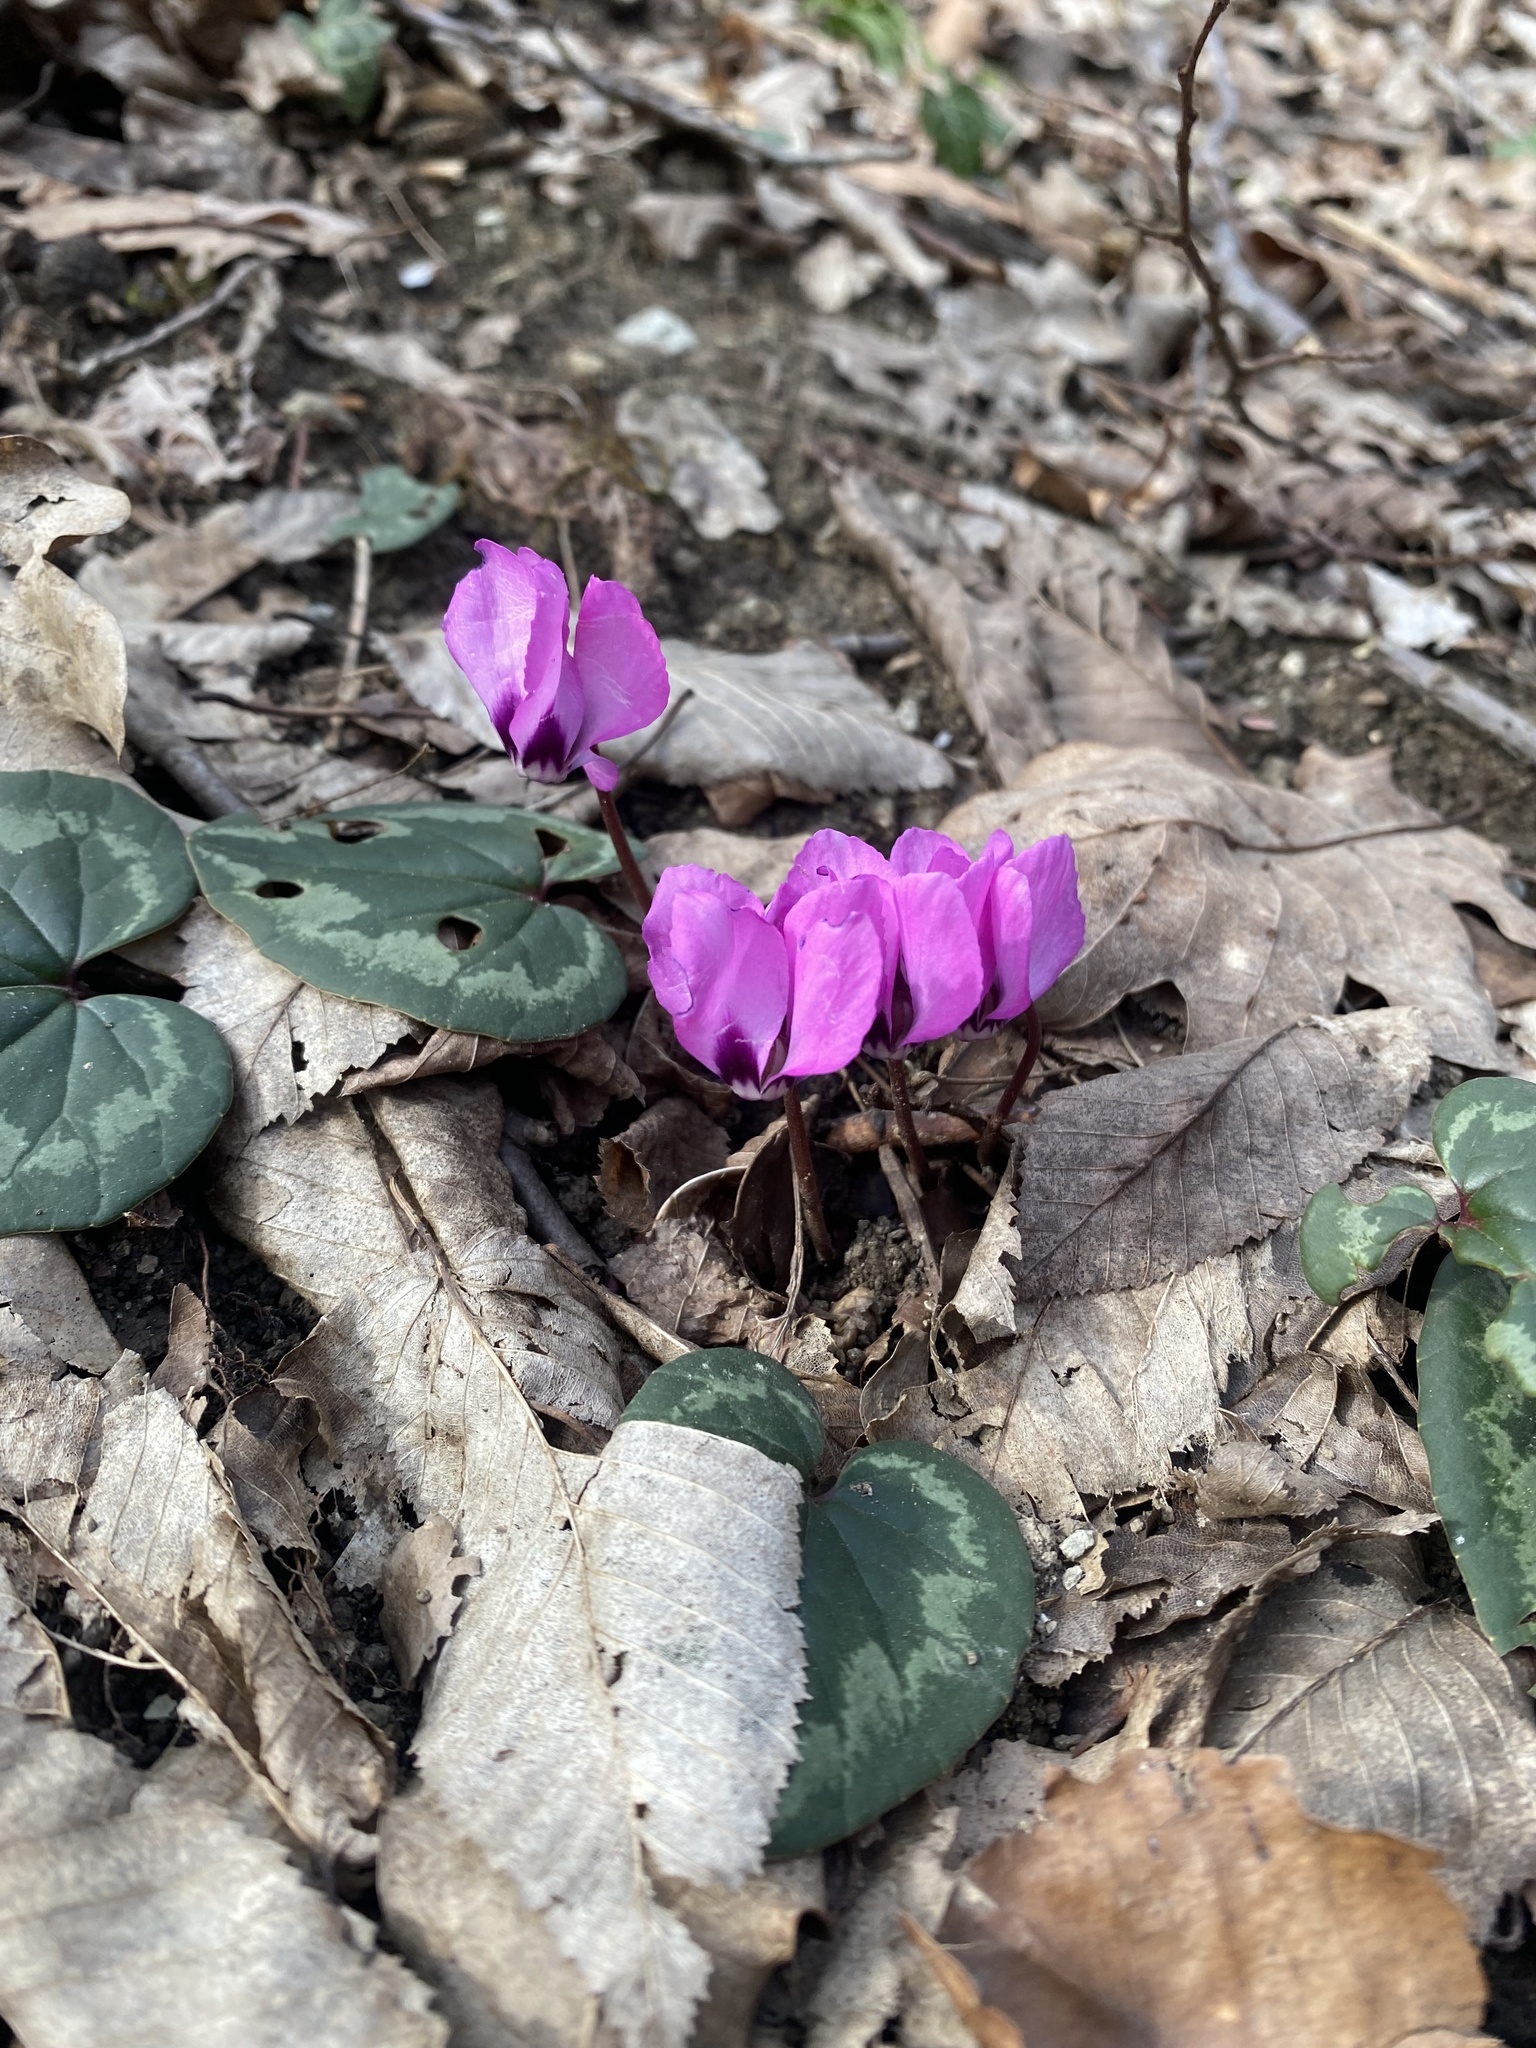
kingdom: Plantae
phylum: Tracheophyta
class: Magnoliopsida
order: Ericales
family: Primulaceae
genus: Cyclamen
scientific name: Cyclamen coum
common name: Eastern sowbread
